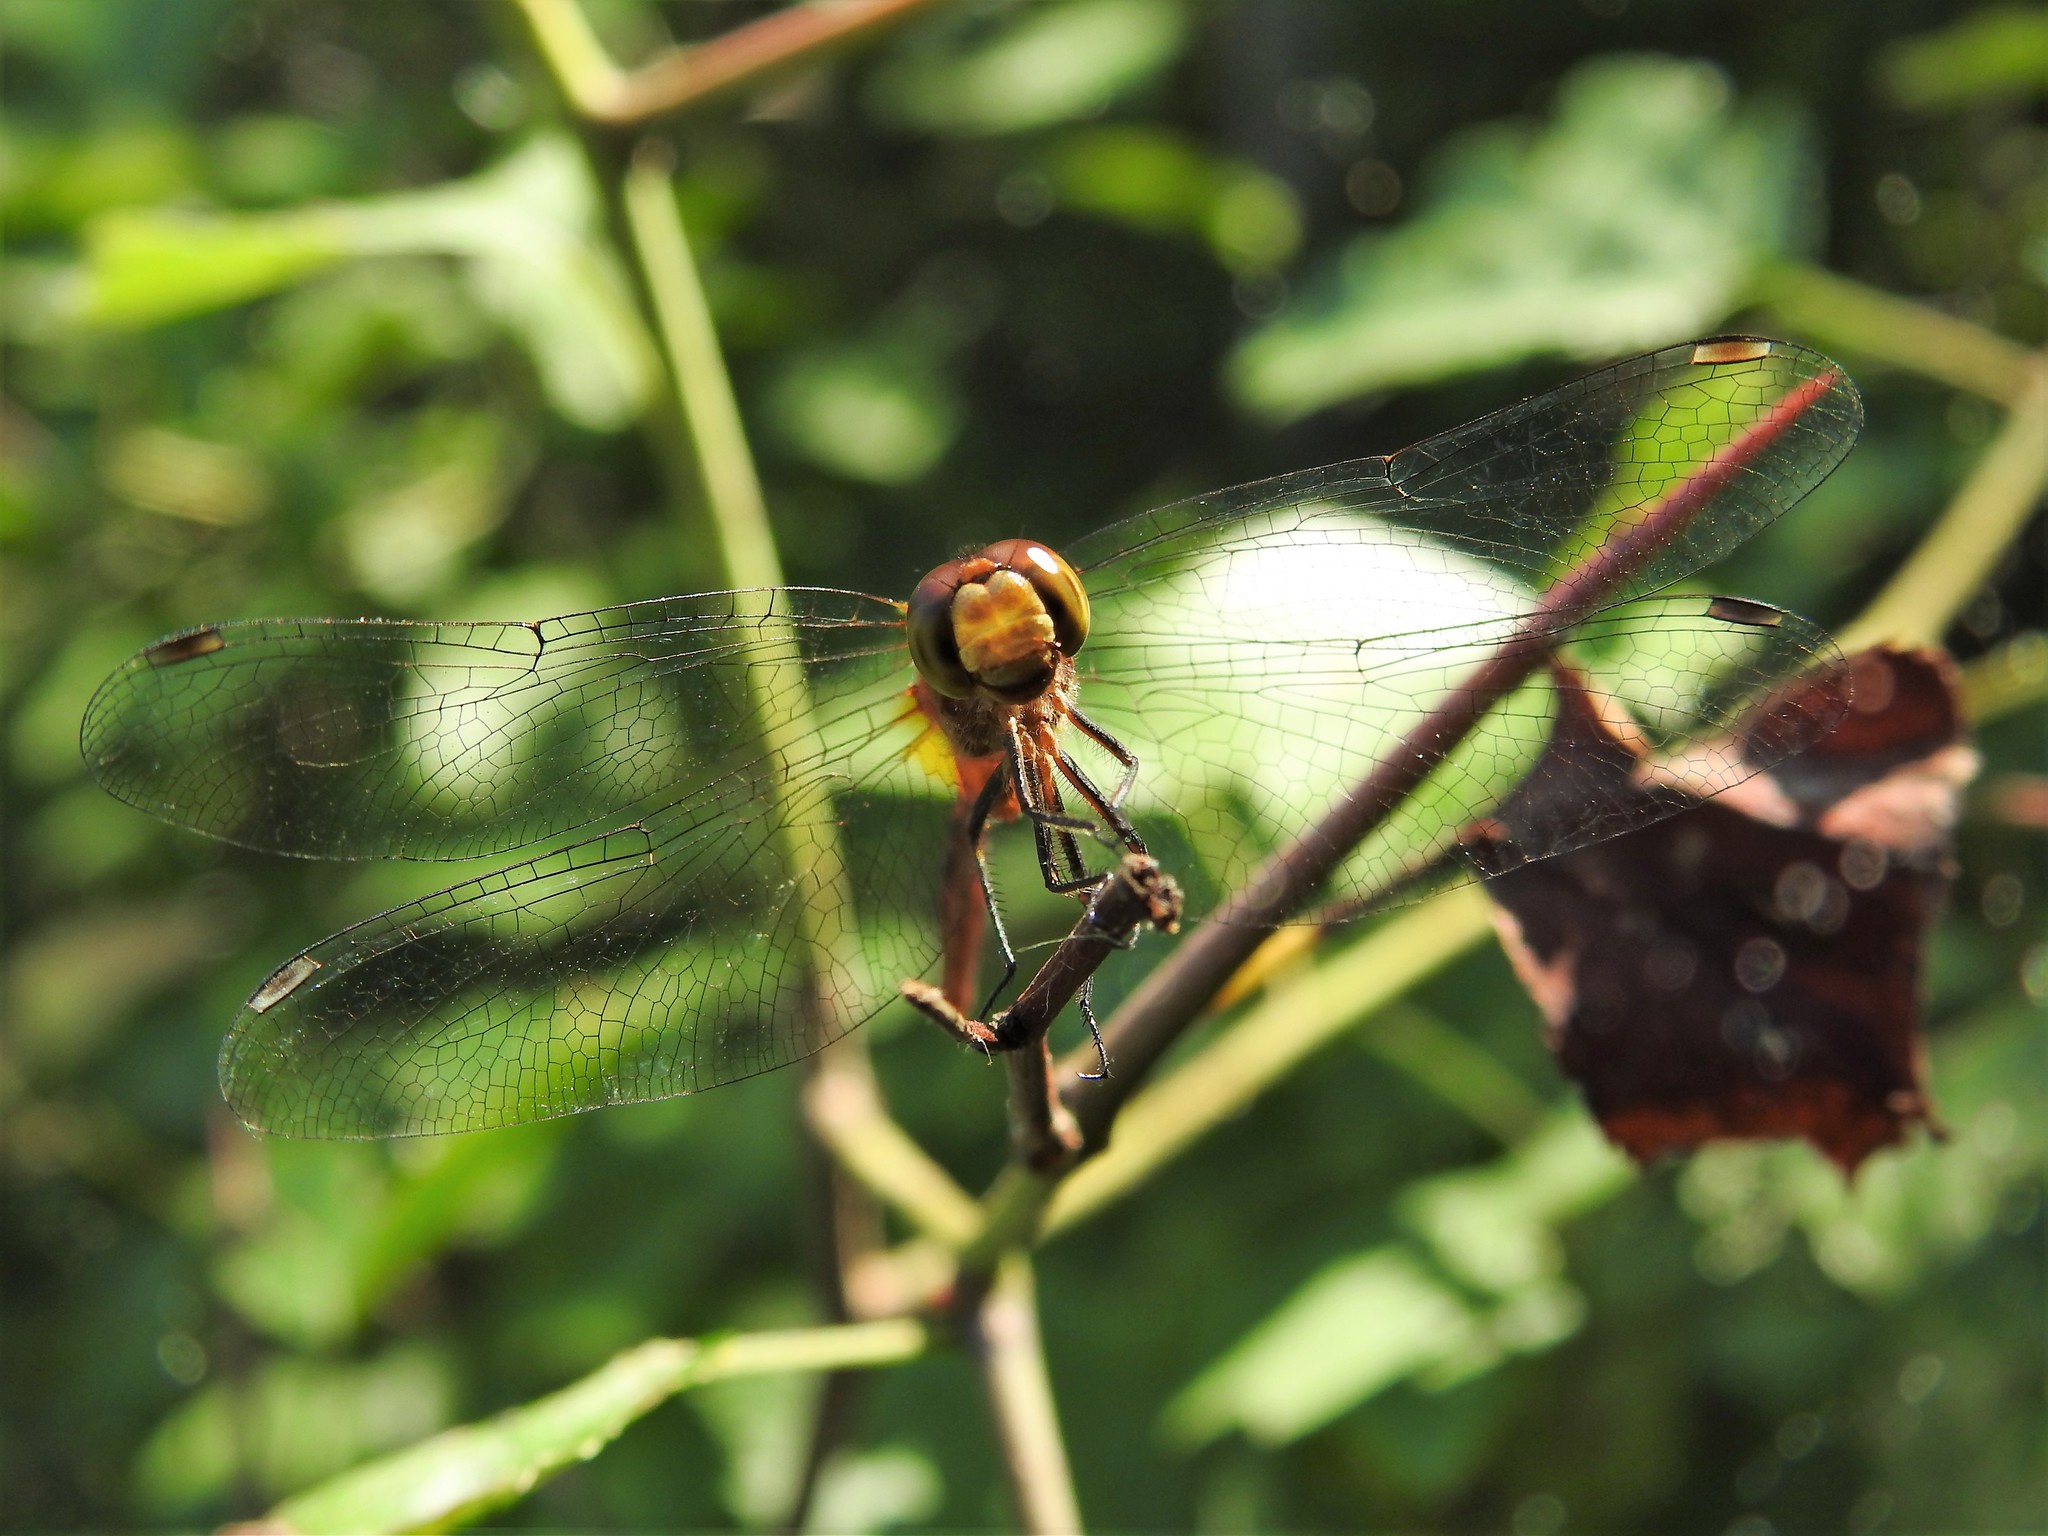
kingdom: Animalia
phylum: Arthropoda
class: Insecta
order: Odonata
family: Libellulidae
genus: Sympetrum
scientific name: Sympetrum
